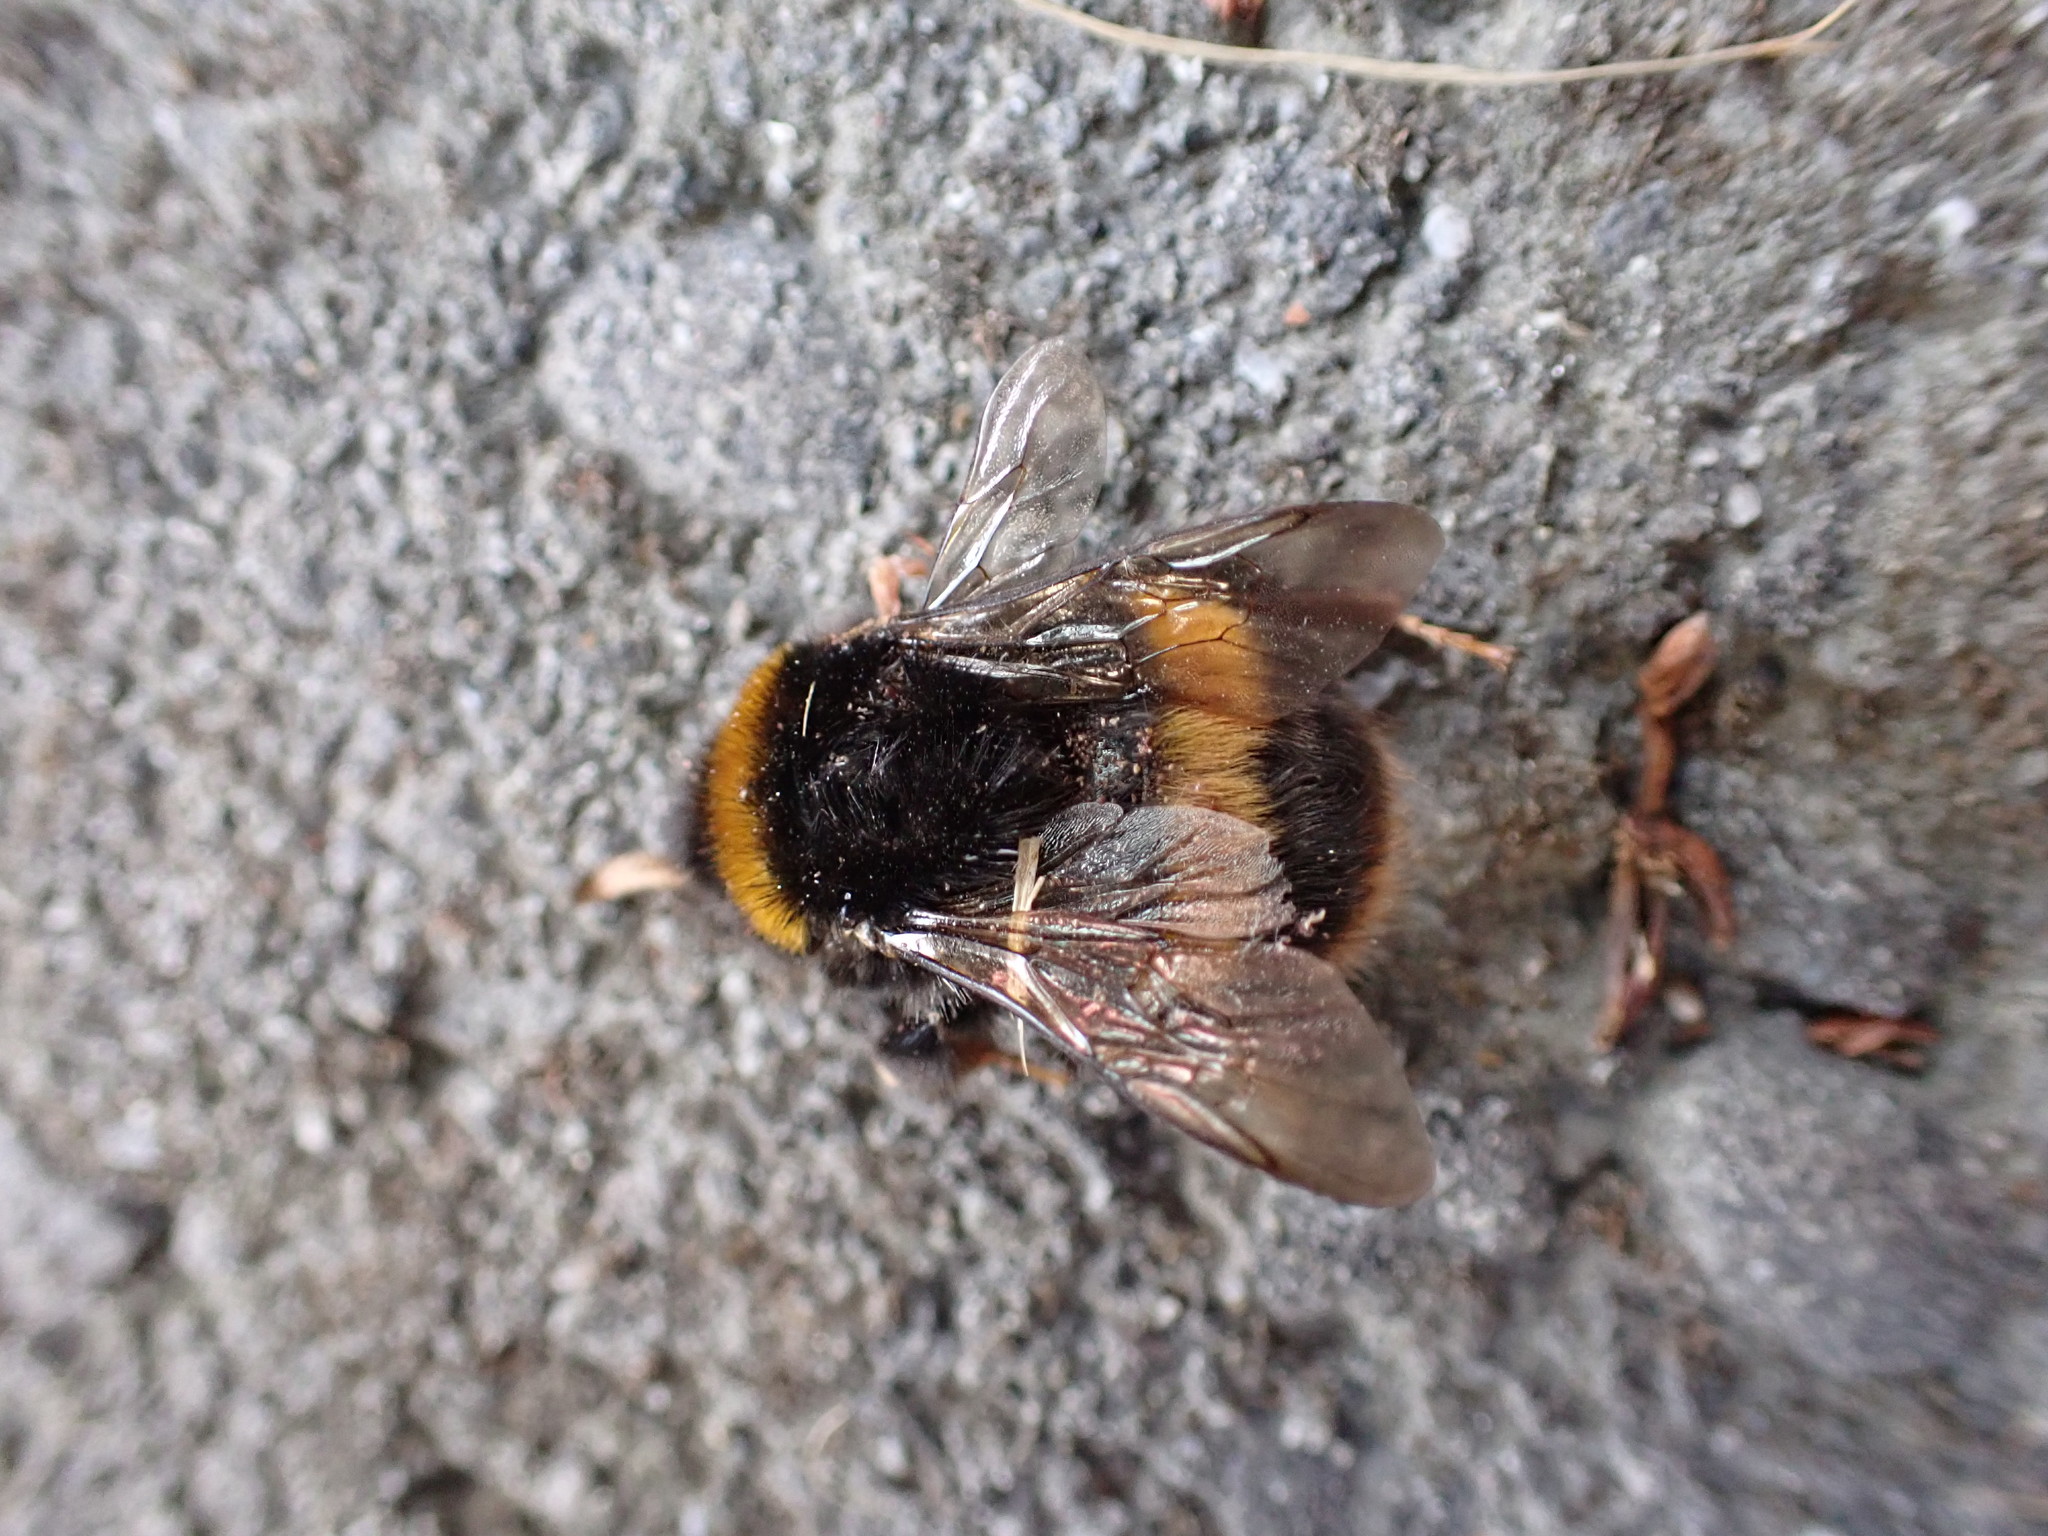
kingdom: Animalia
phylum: Arthropoda
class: Insecta
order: Hymenoptera
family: Apidae
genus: Bombus
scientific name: Bombus terrestris
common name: Buff-tailed bumblebee
